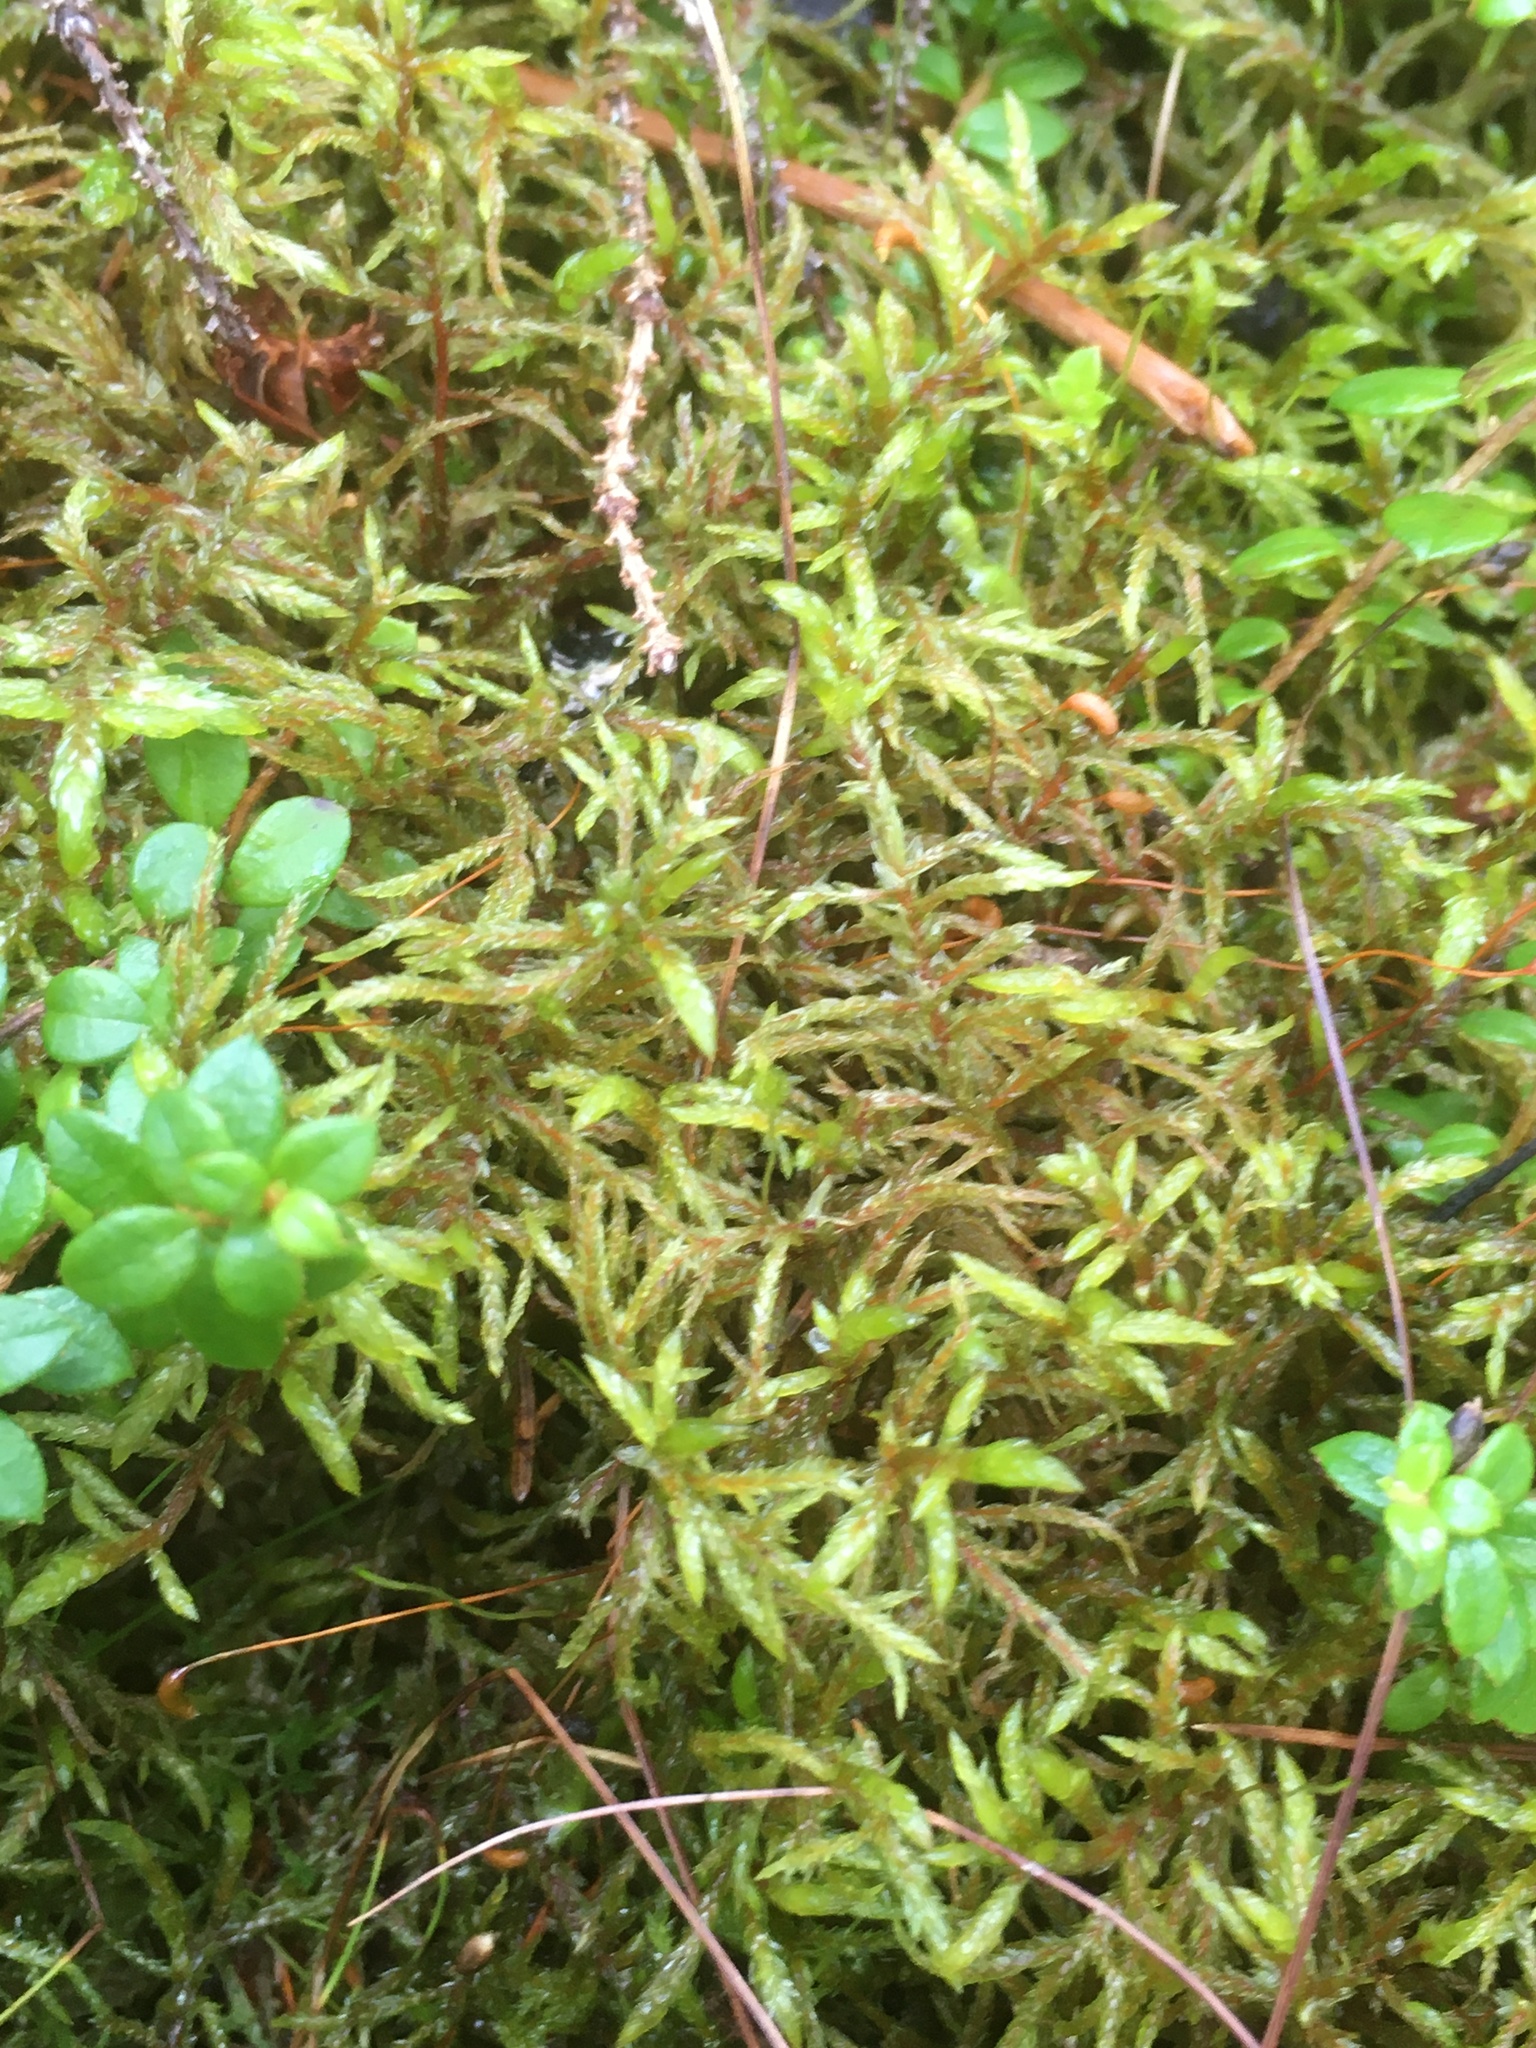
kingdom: Plantae
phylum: Bryophyta
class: Bryopsida
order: Hypnales
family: Hylocomiaceae
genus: Pleurozium
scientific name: Pleurozium schreberi
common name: Red-stemmed feather moss
